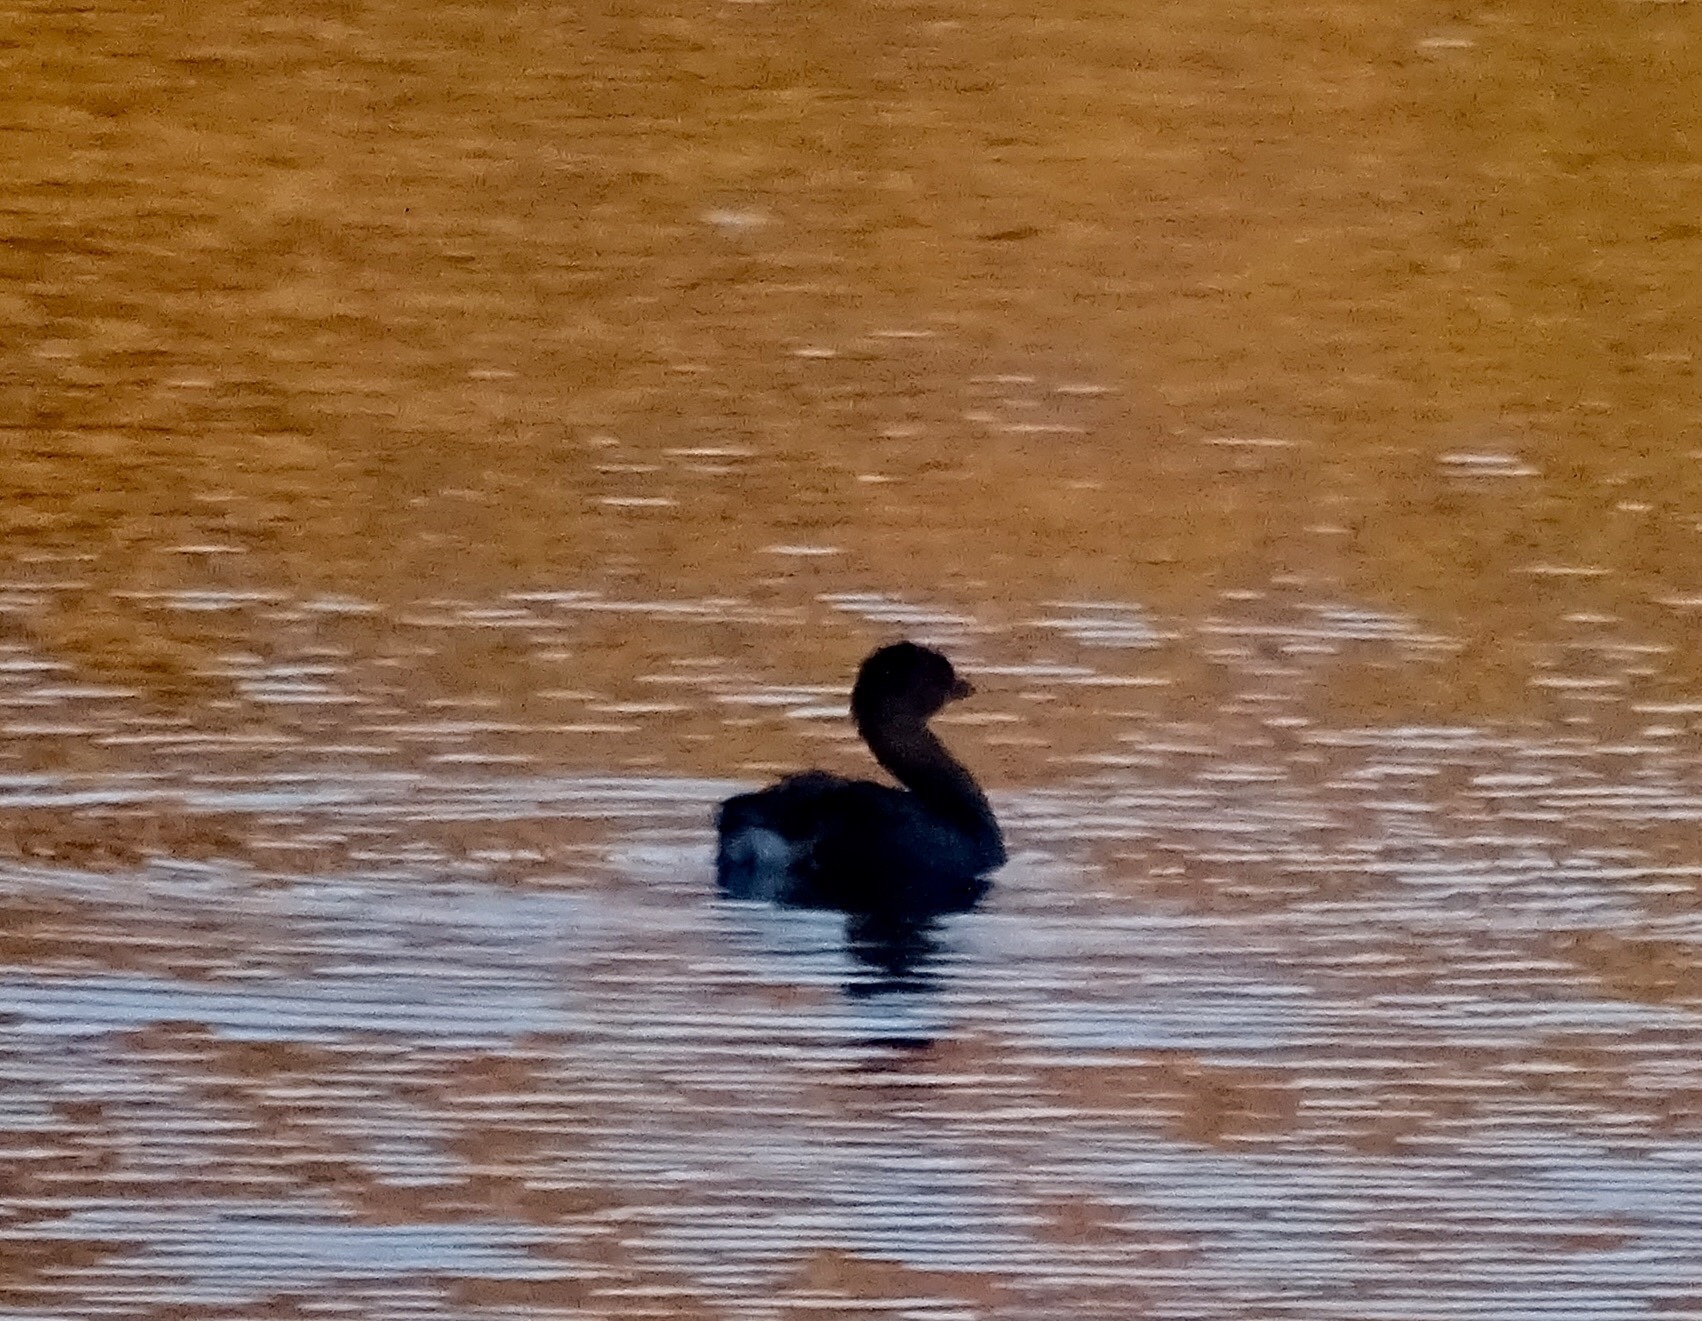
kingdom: Animalia
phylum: Chordata
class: Aves
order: Podicipediformes
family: Podicipedidae
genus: Podilymbus
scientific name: Podilymbus podiceps
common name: Pied-billed grebe
